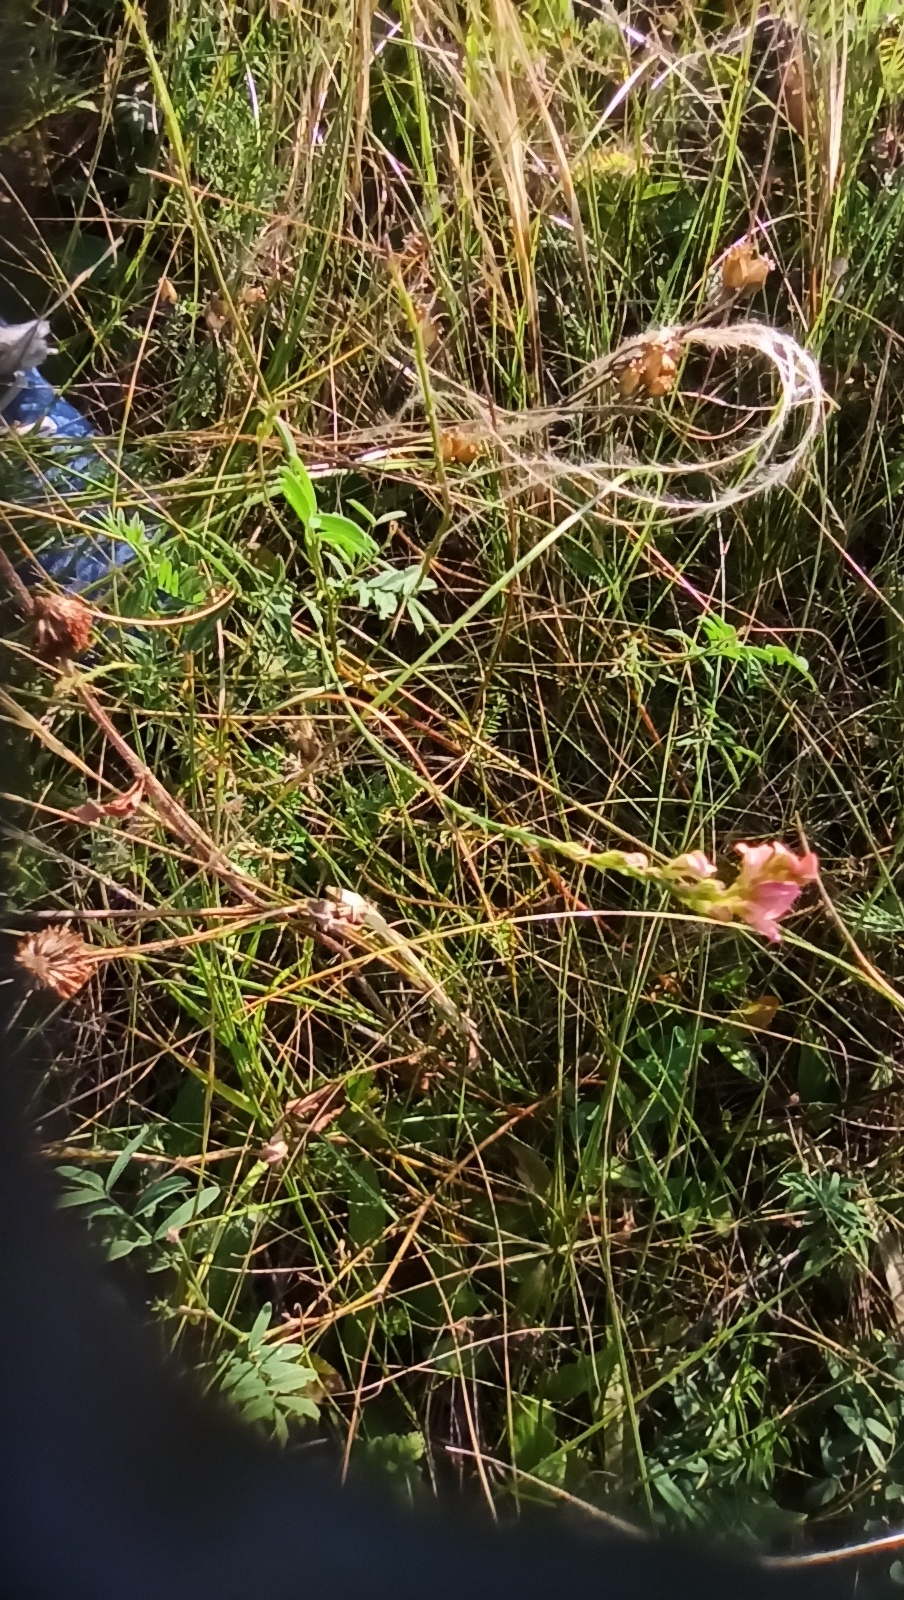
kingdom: Plantae
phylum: Tracheophyta
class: Magnoliopsida
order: Fabales
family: Fabaceae
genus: Onobrychis
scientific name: Onobrychis arenaria
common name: Sand esparcet
